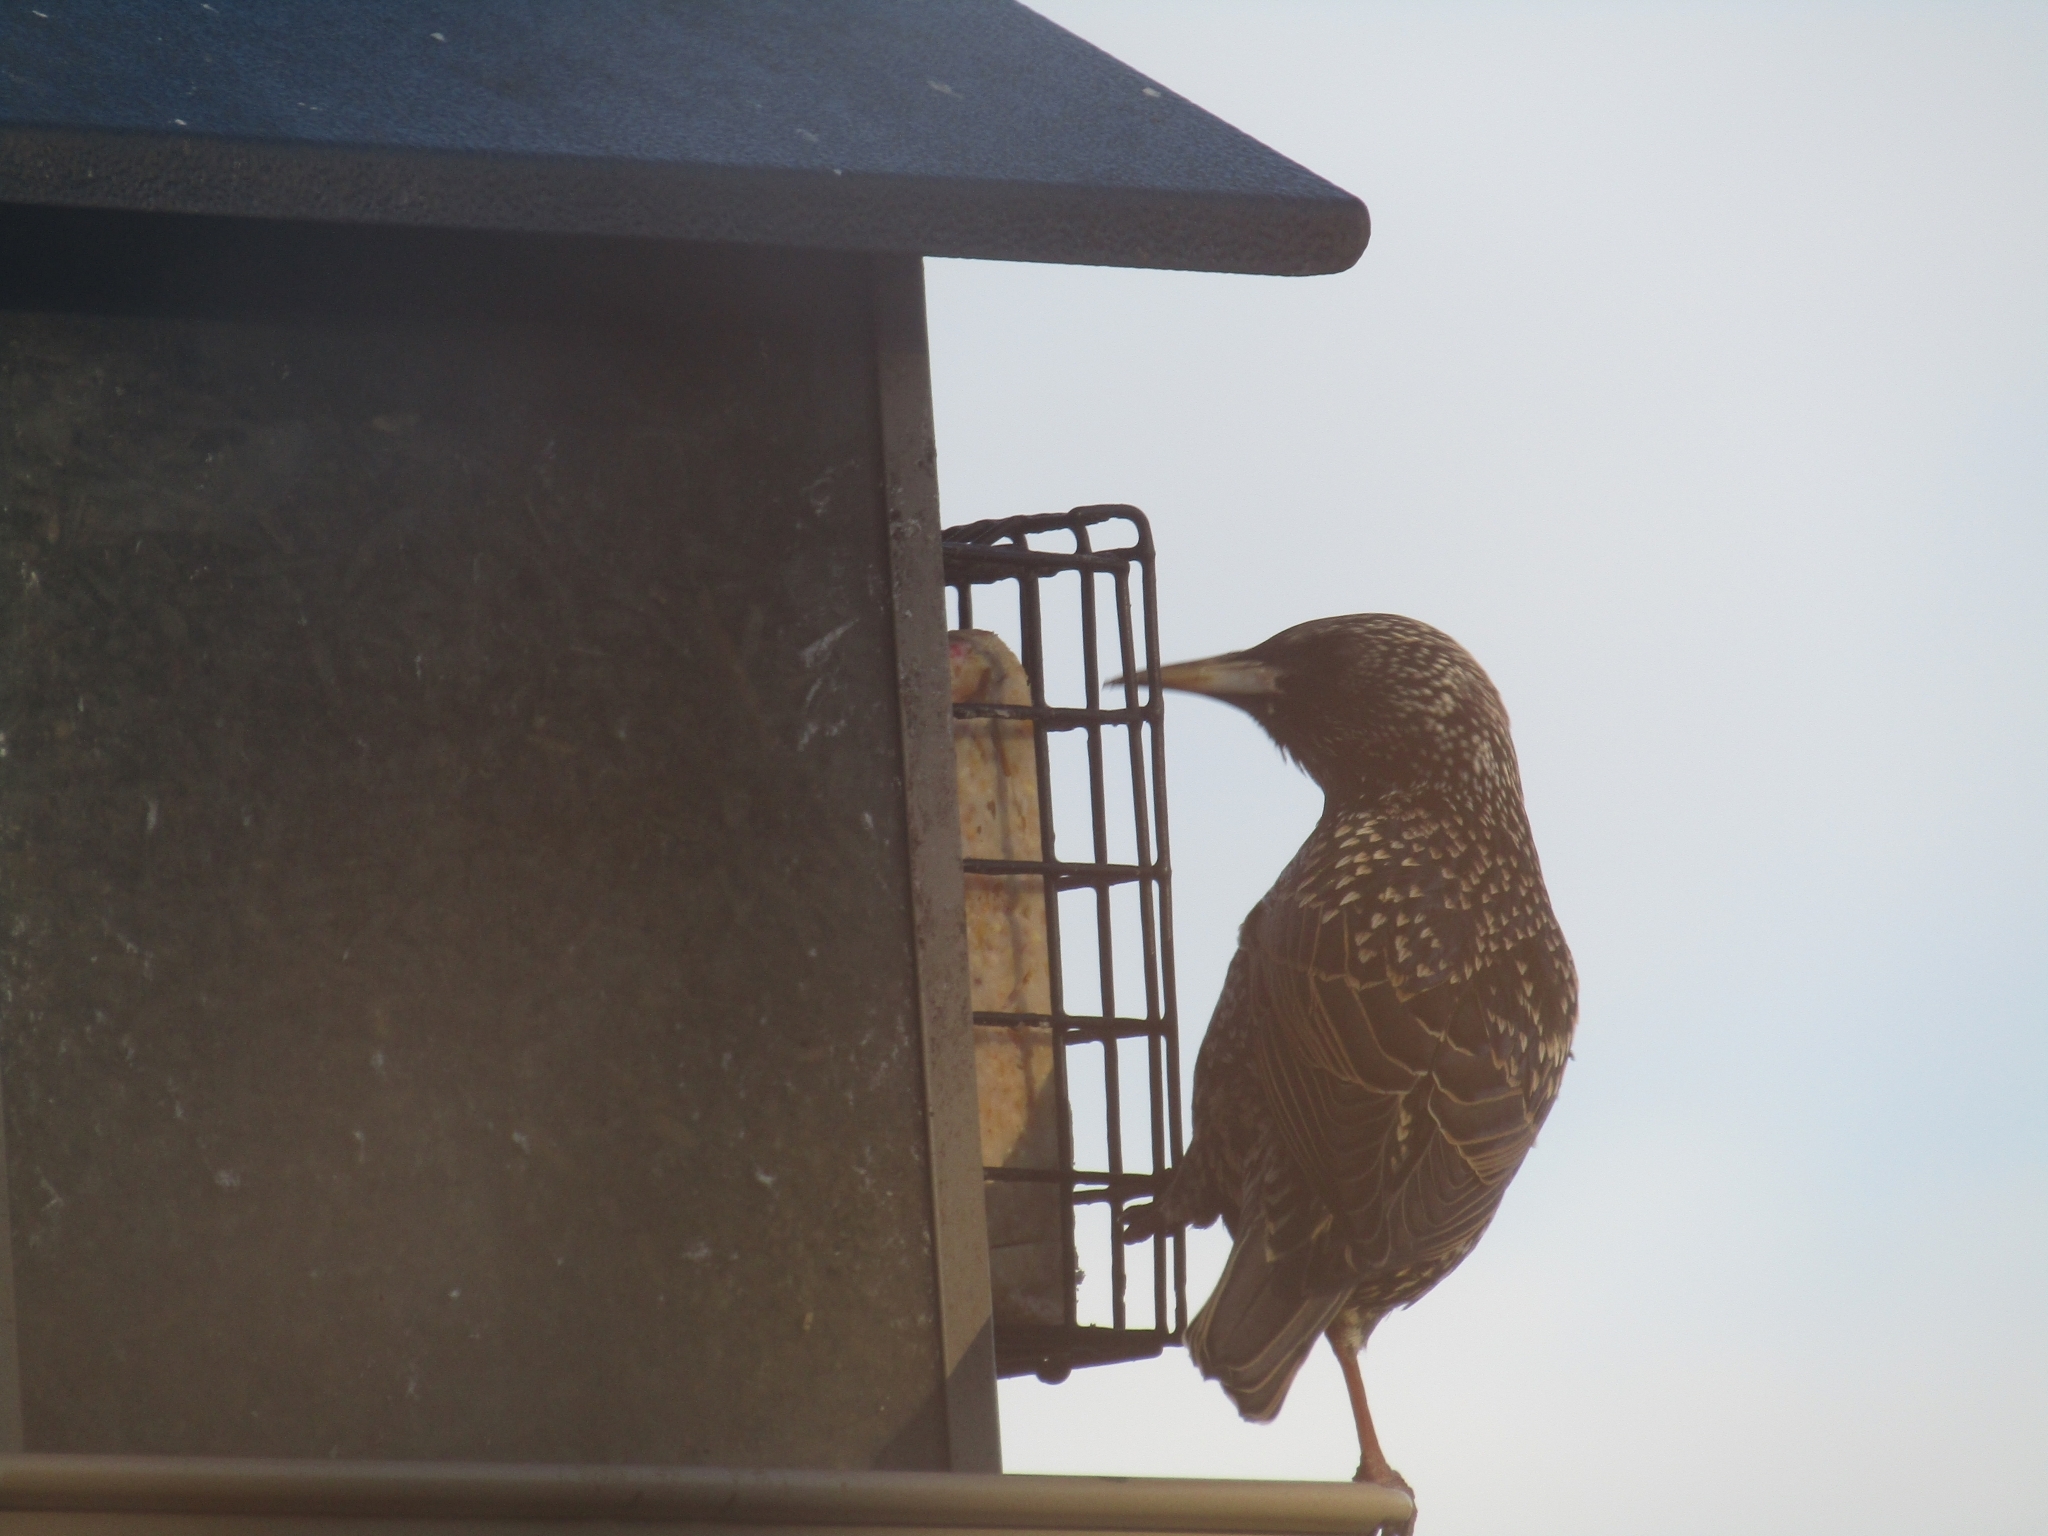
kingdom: Animalia
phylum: Chordata
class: Aves
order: Passeriformes
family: Sturnidae
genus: Sturnus
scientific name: Sturnus vulgaris
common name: Common starling
